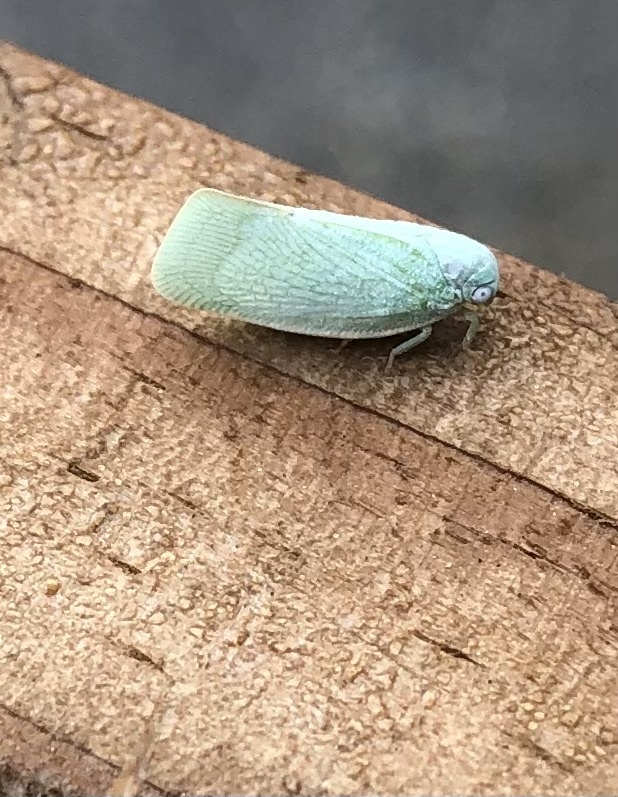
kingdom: Animalia
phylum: Arthropoda
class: Insecta
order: Hemiptera
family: Flatidae
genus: Flatormenis
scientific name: Flatormenis proxima
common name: Northern flatid planthopper
